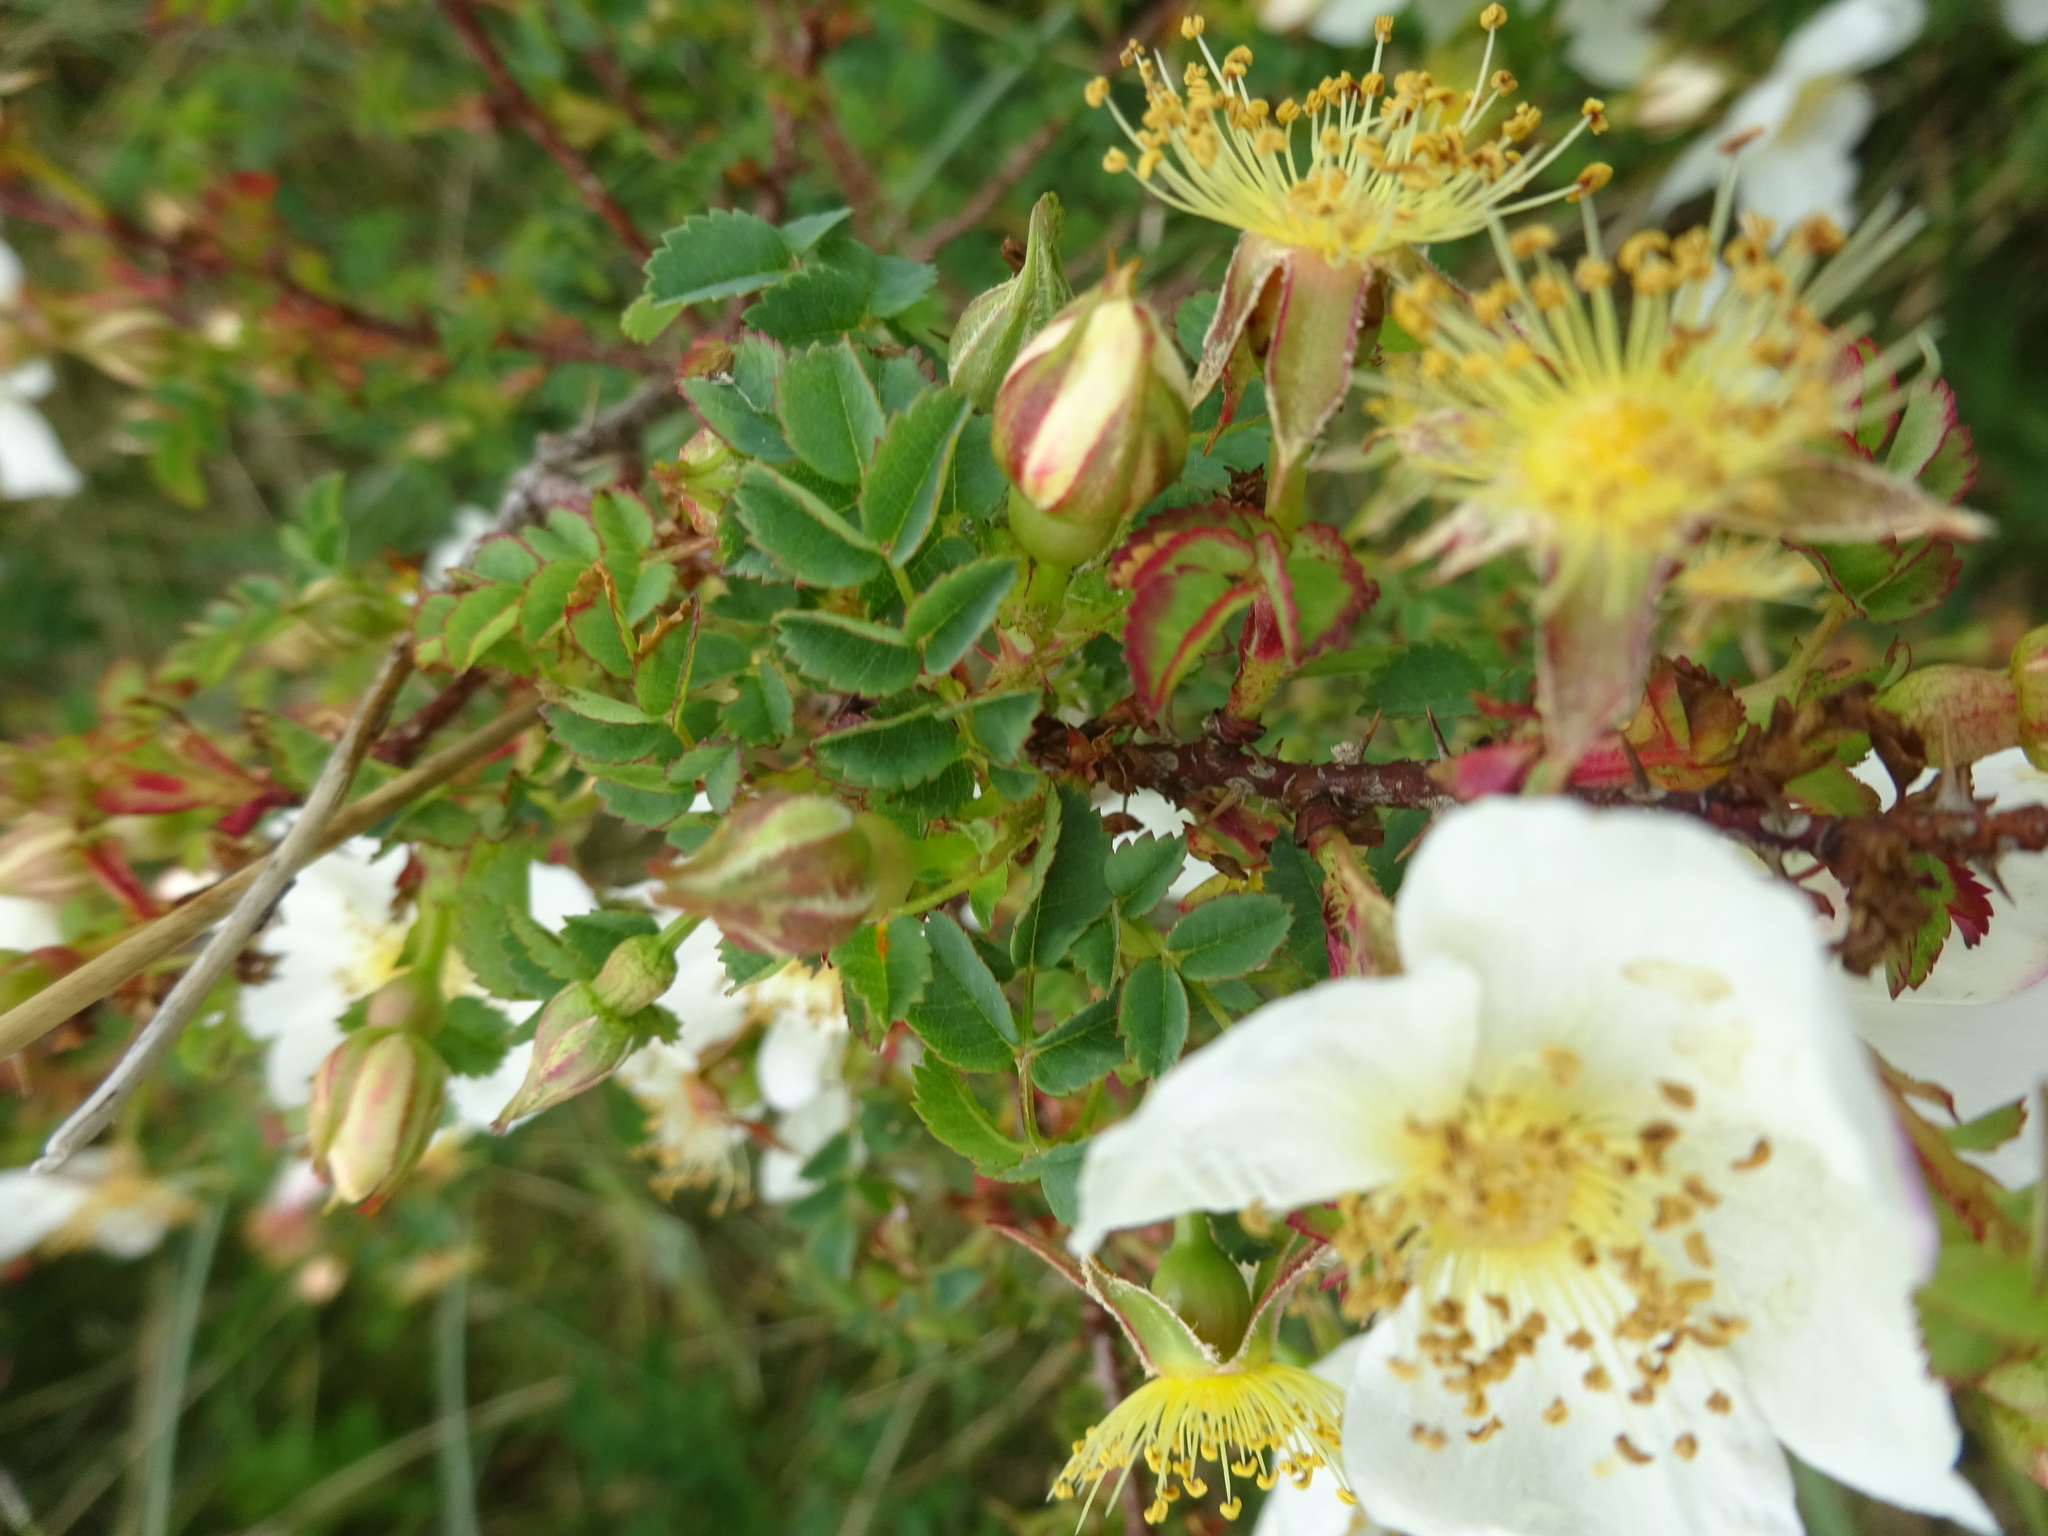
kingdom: Plantae
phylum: Tracheophyta
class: Magnoliopsida
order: Rosales
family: Rosaceae
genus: Rosa
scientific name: Rosa spinosissima
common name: Burnet rose
